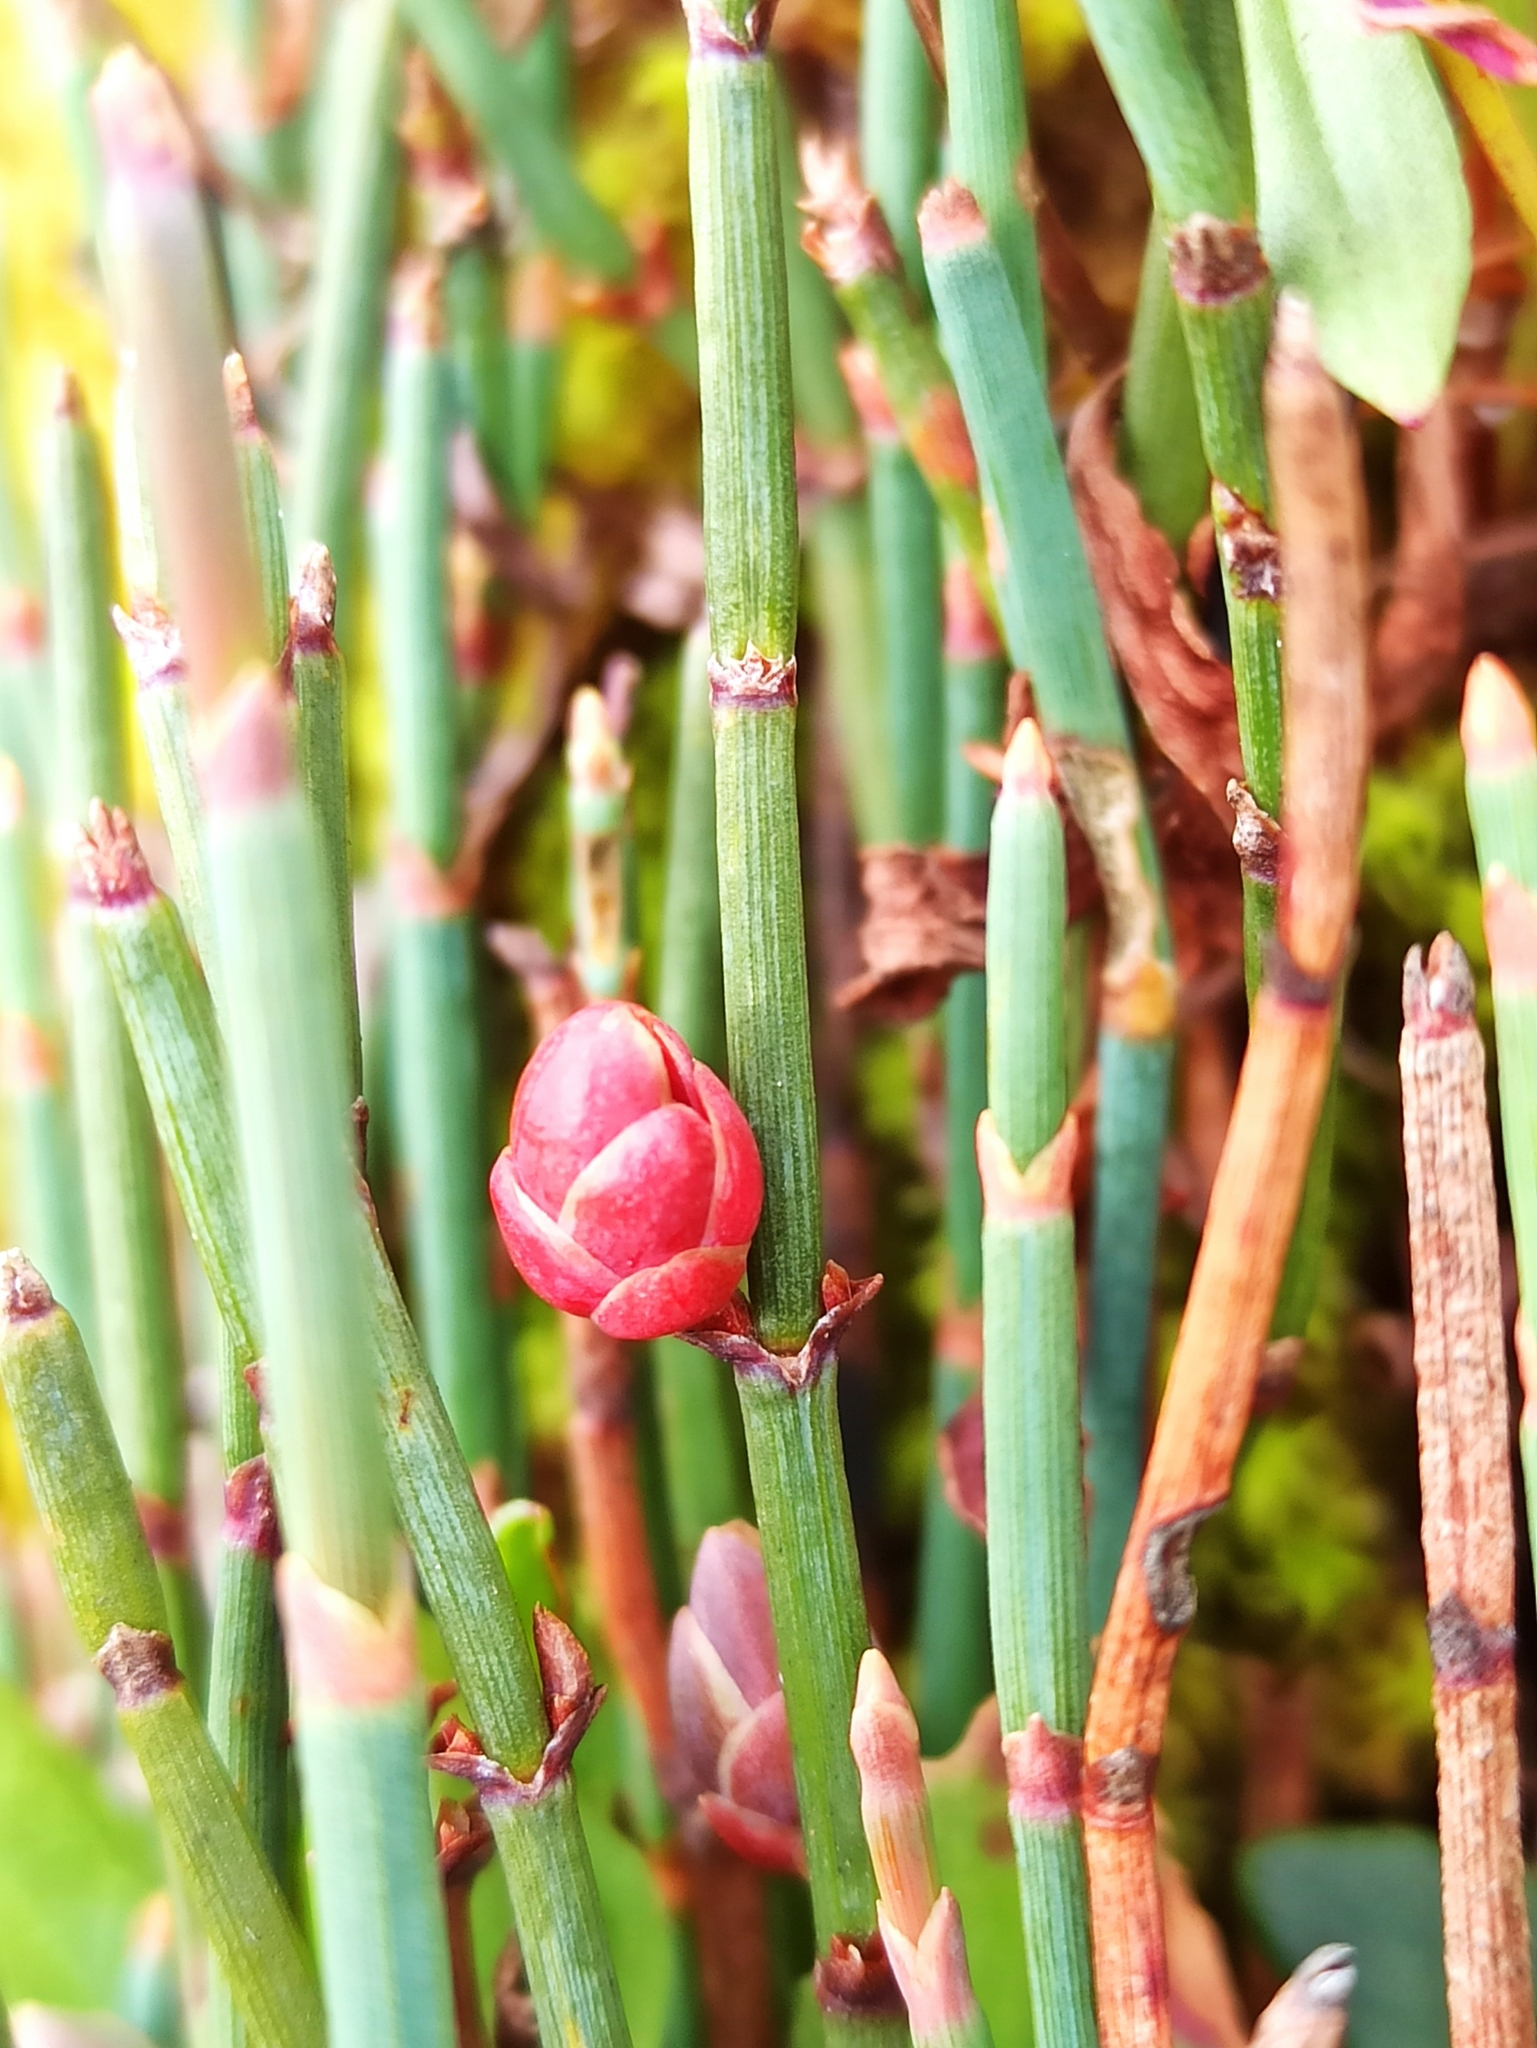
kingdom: Plantae
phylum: Tracheophyta
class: Gnetopsida
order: Ephedrales
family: Ephedraceae
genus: Ephedra
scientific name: Ephedra americana
